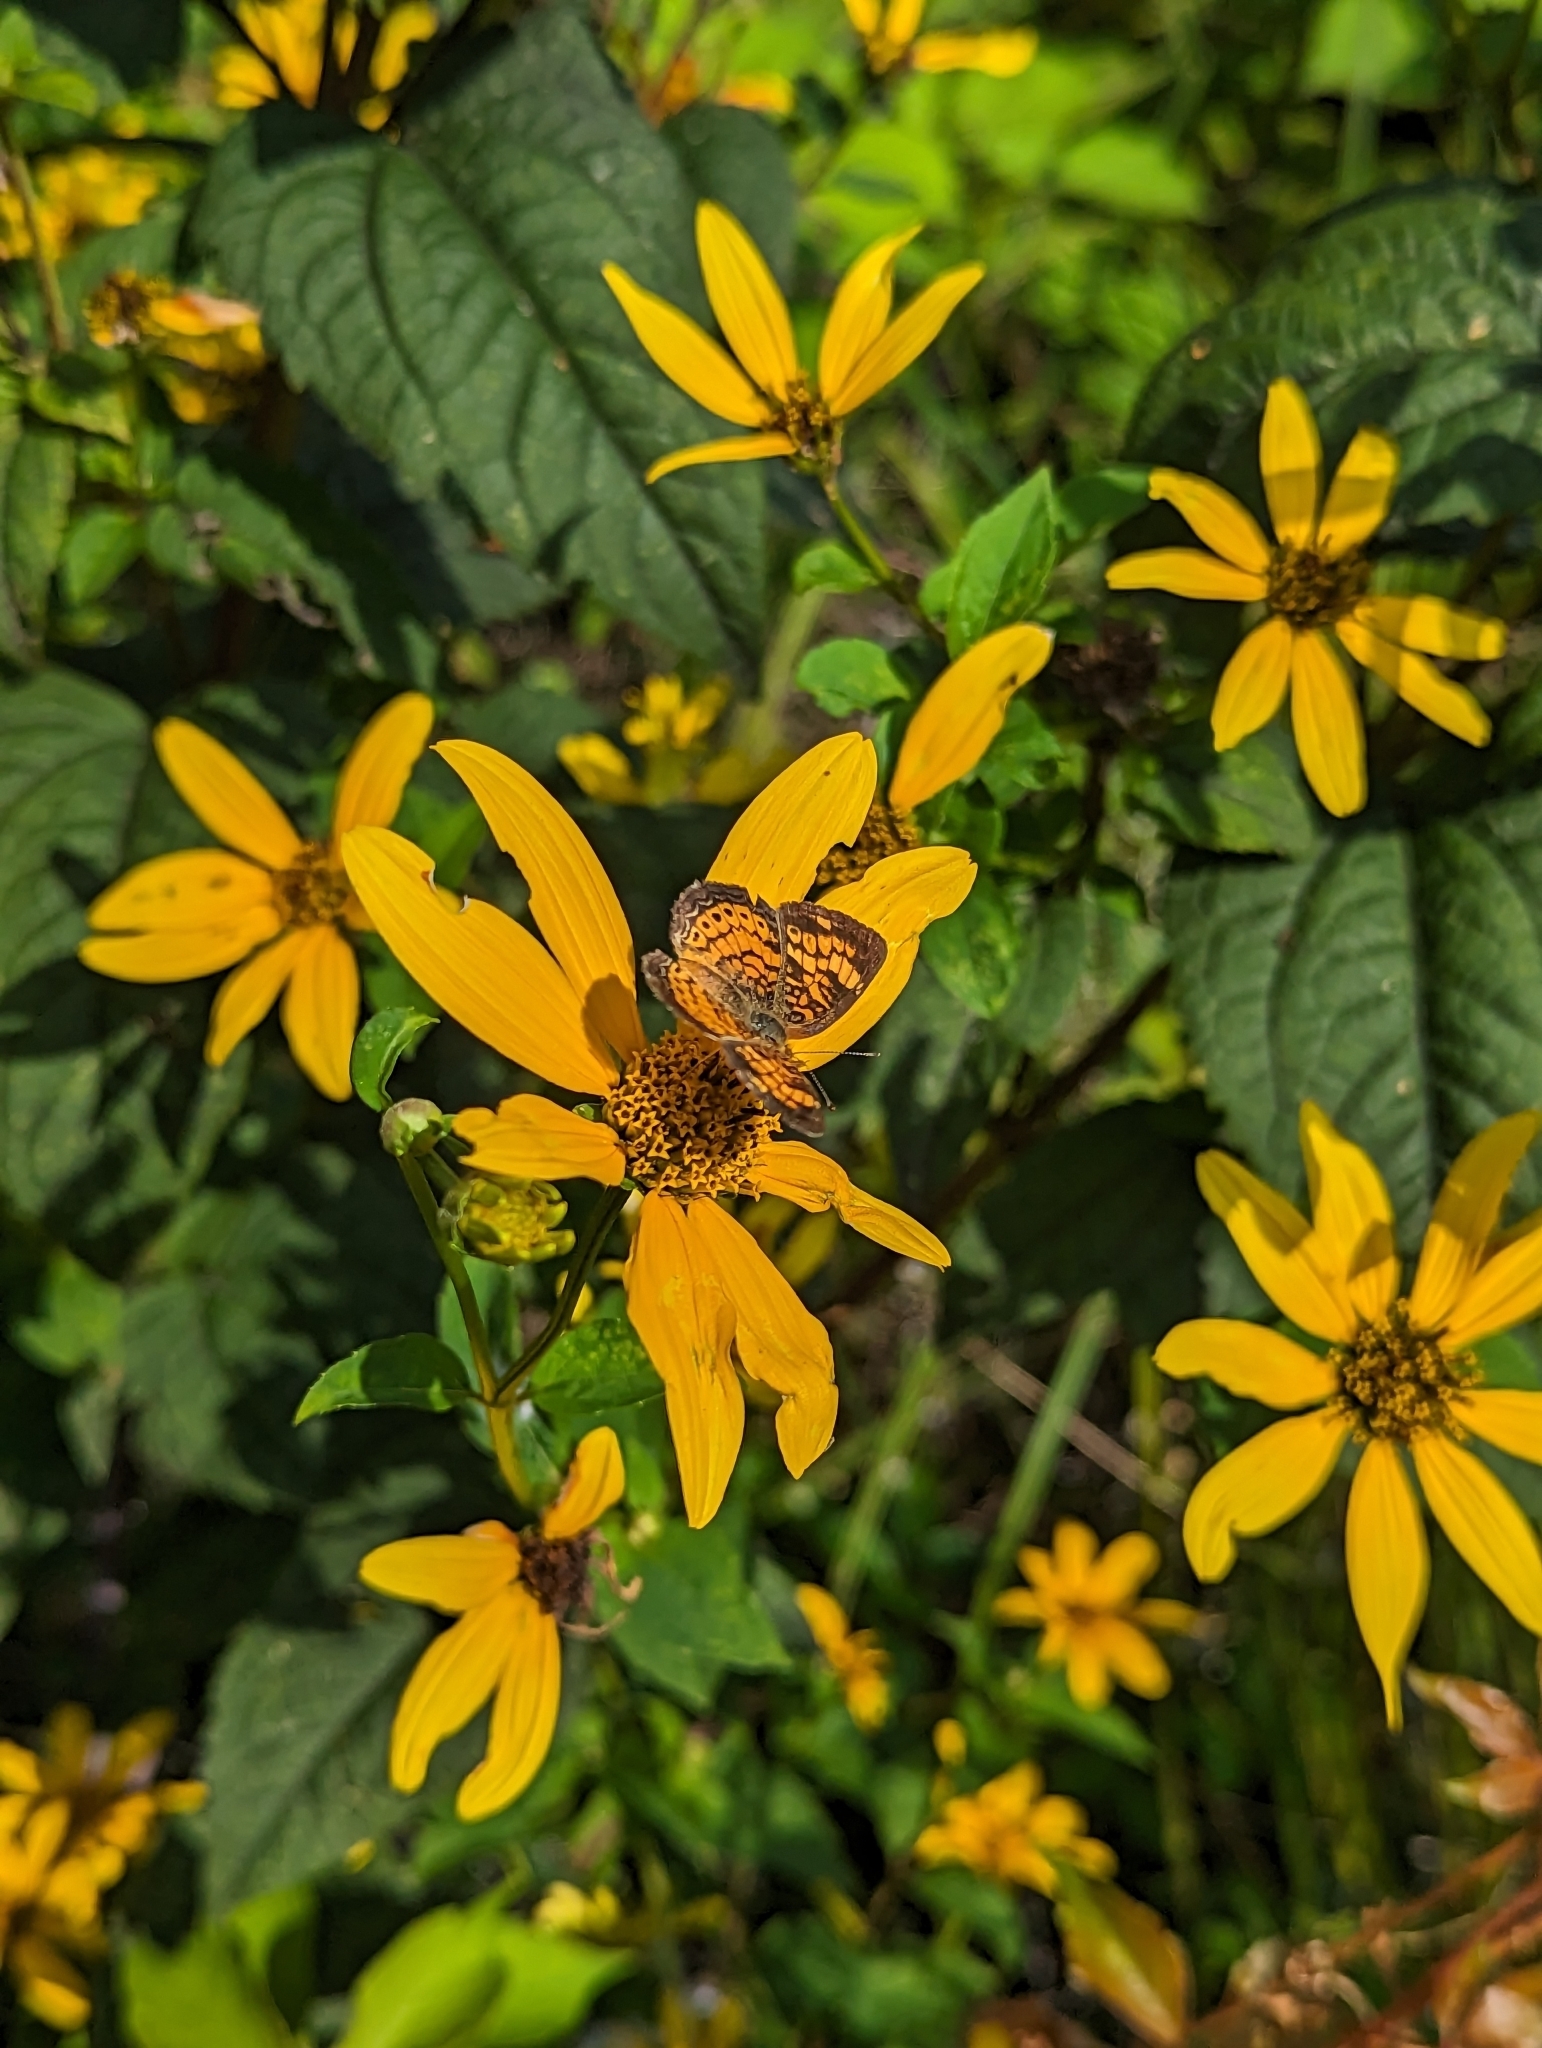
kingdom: Animalia
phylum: Arthropoda
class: Insecta
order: Lepidoptera
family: Nymphalidae
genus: Phyciodes
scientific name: Phyciodes tharos
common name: Pearl crescent
